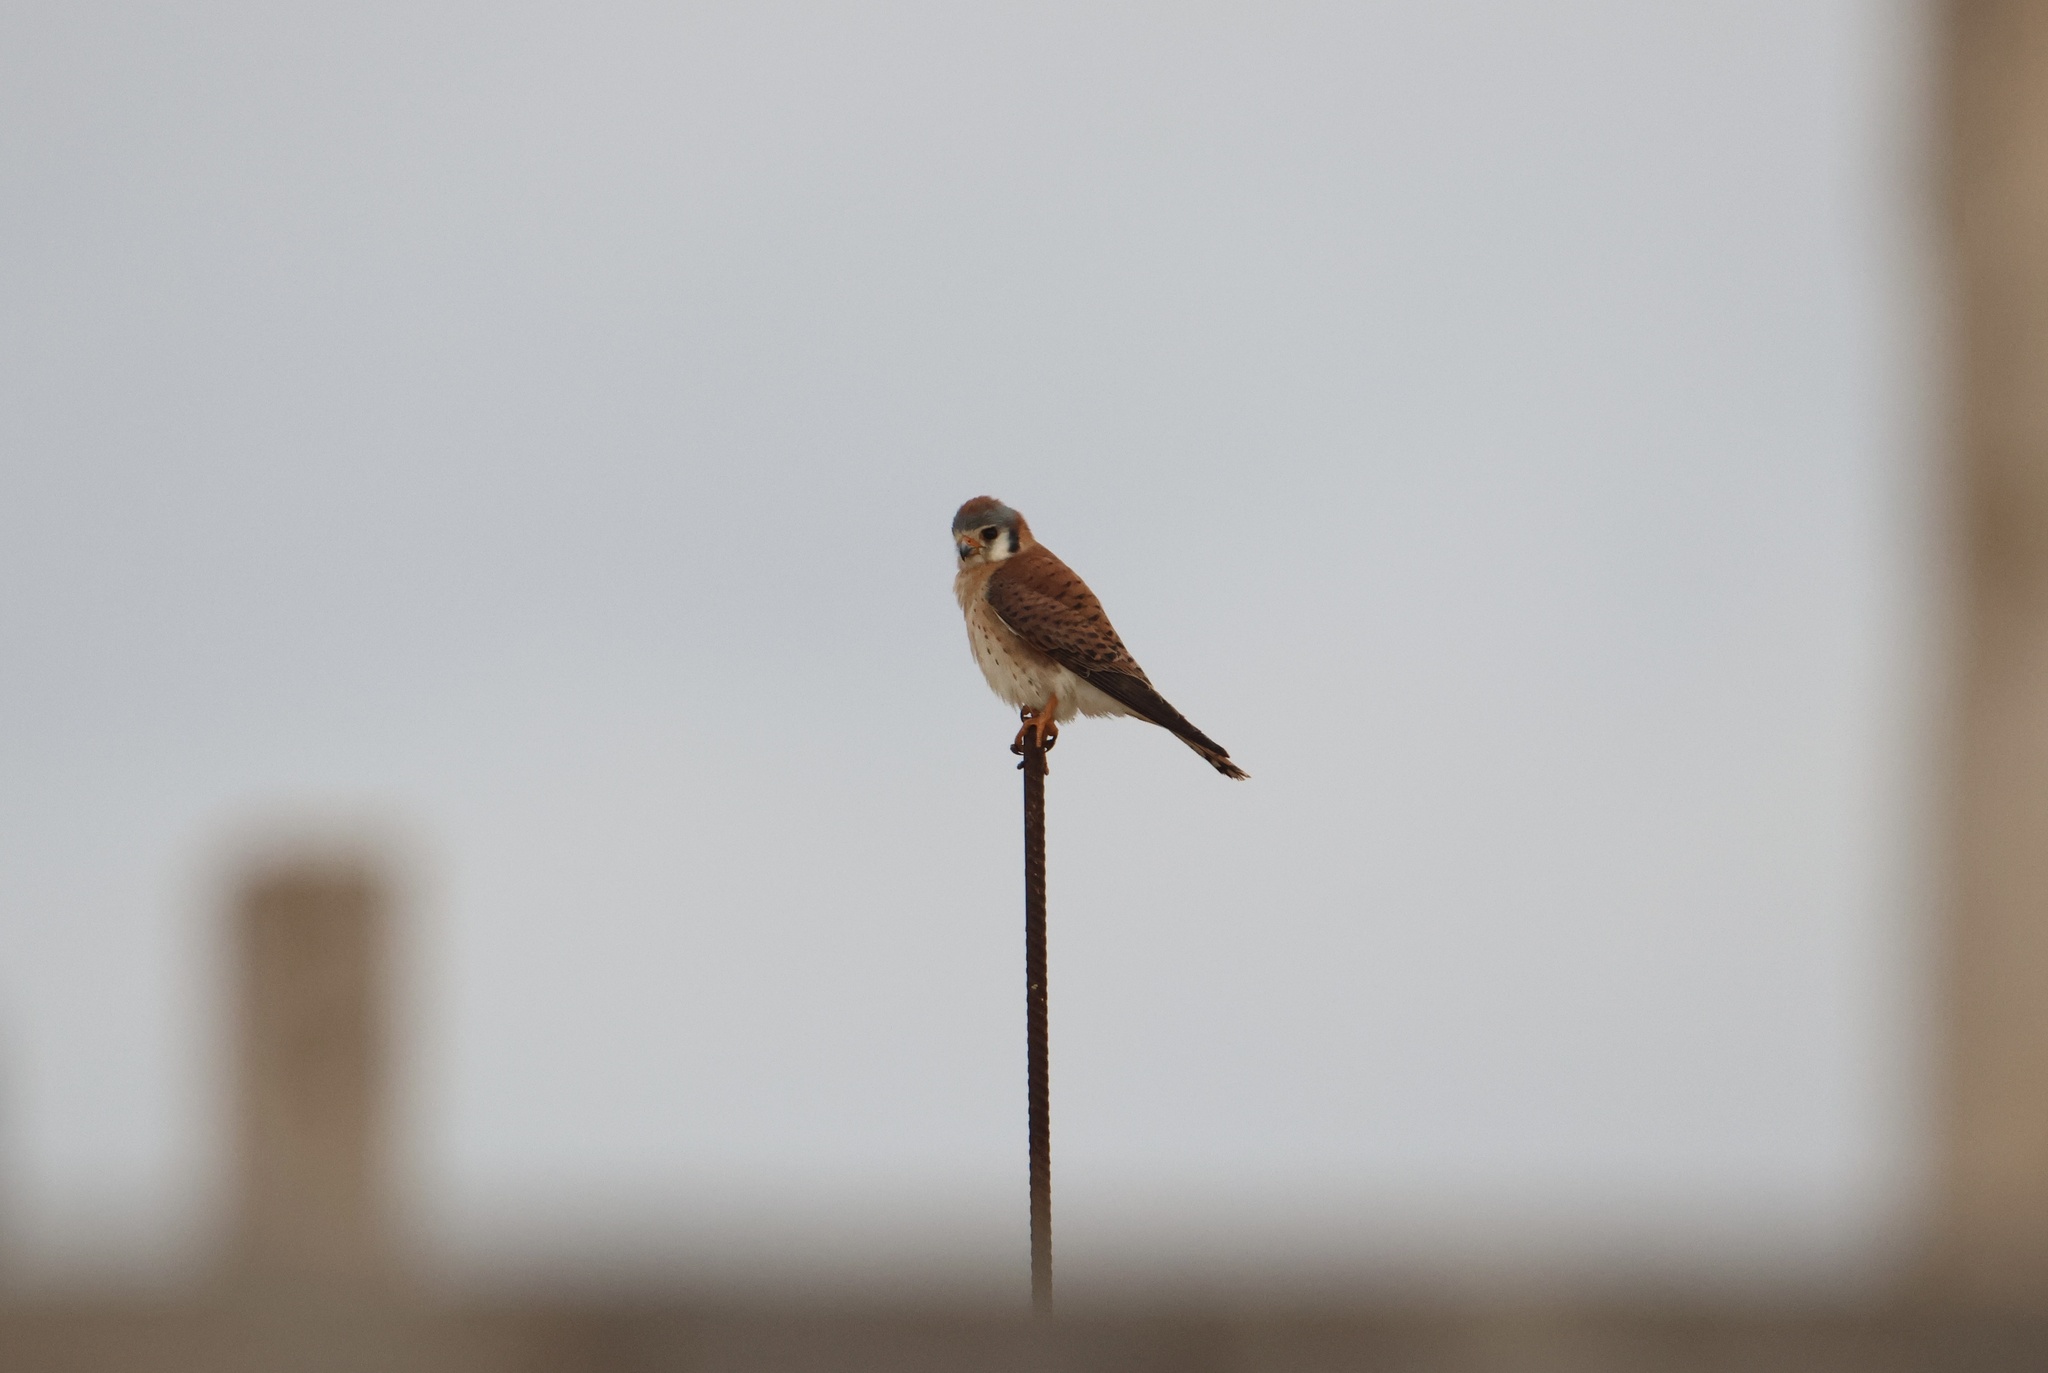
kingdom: Animalia
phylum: Chordata
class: Aves
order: Falconiformes
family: Falconidae
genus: Falco
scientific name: Falco sparverius
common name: American kestrel
